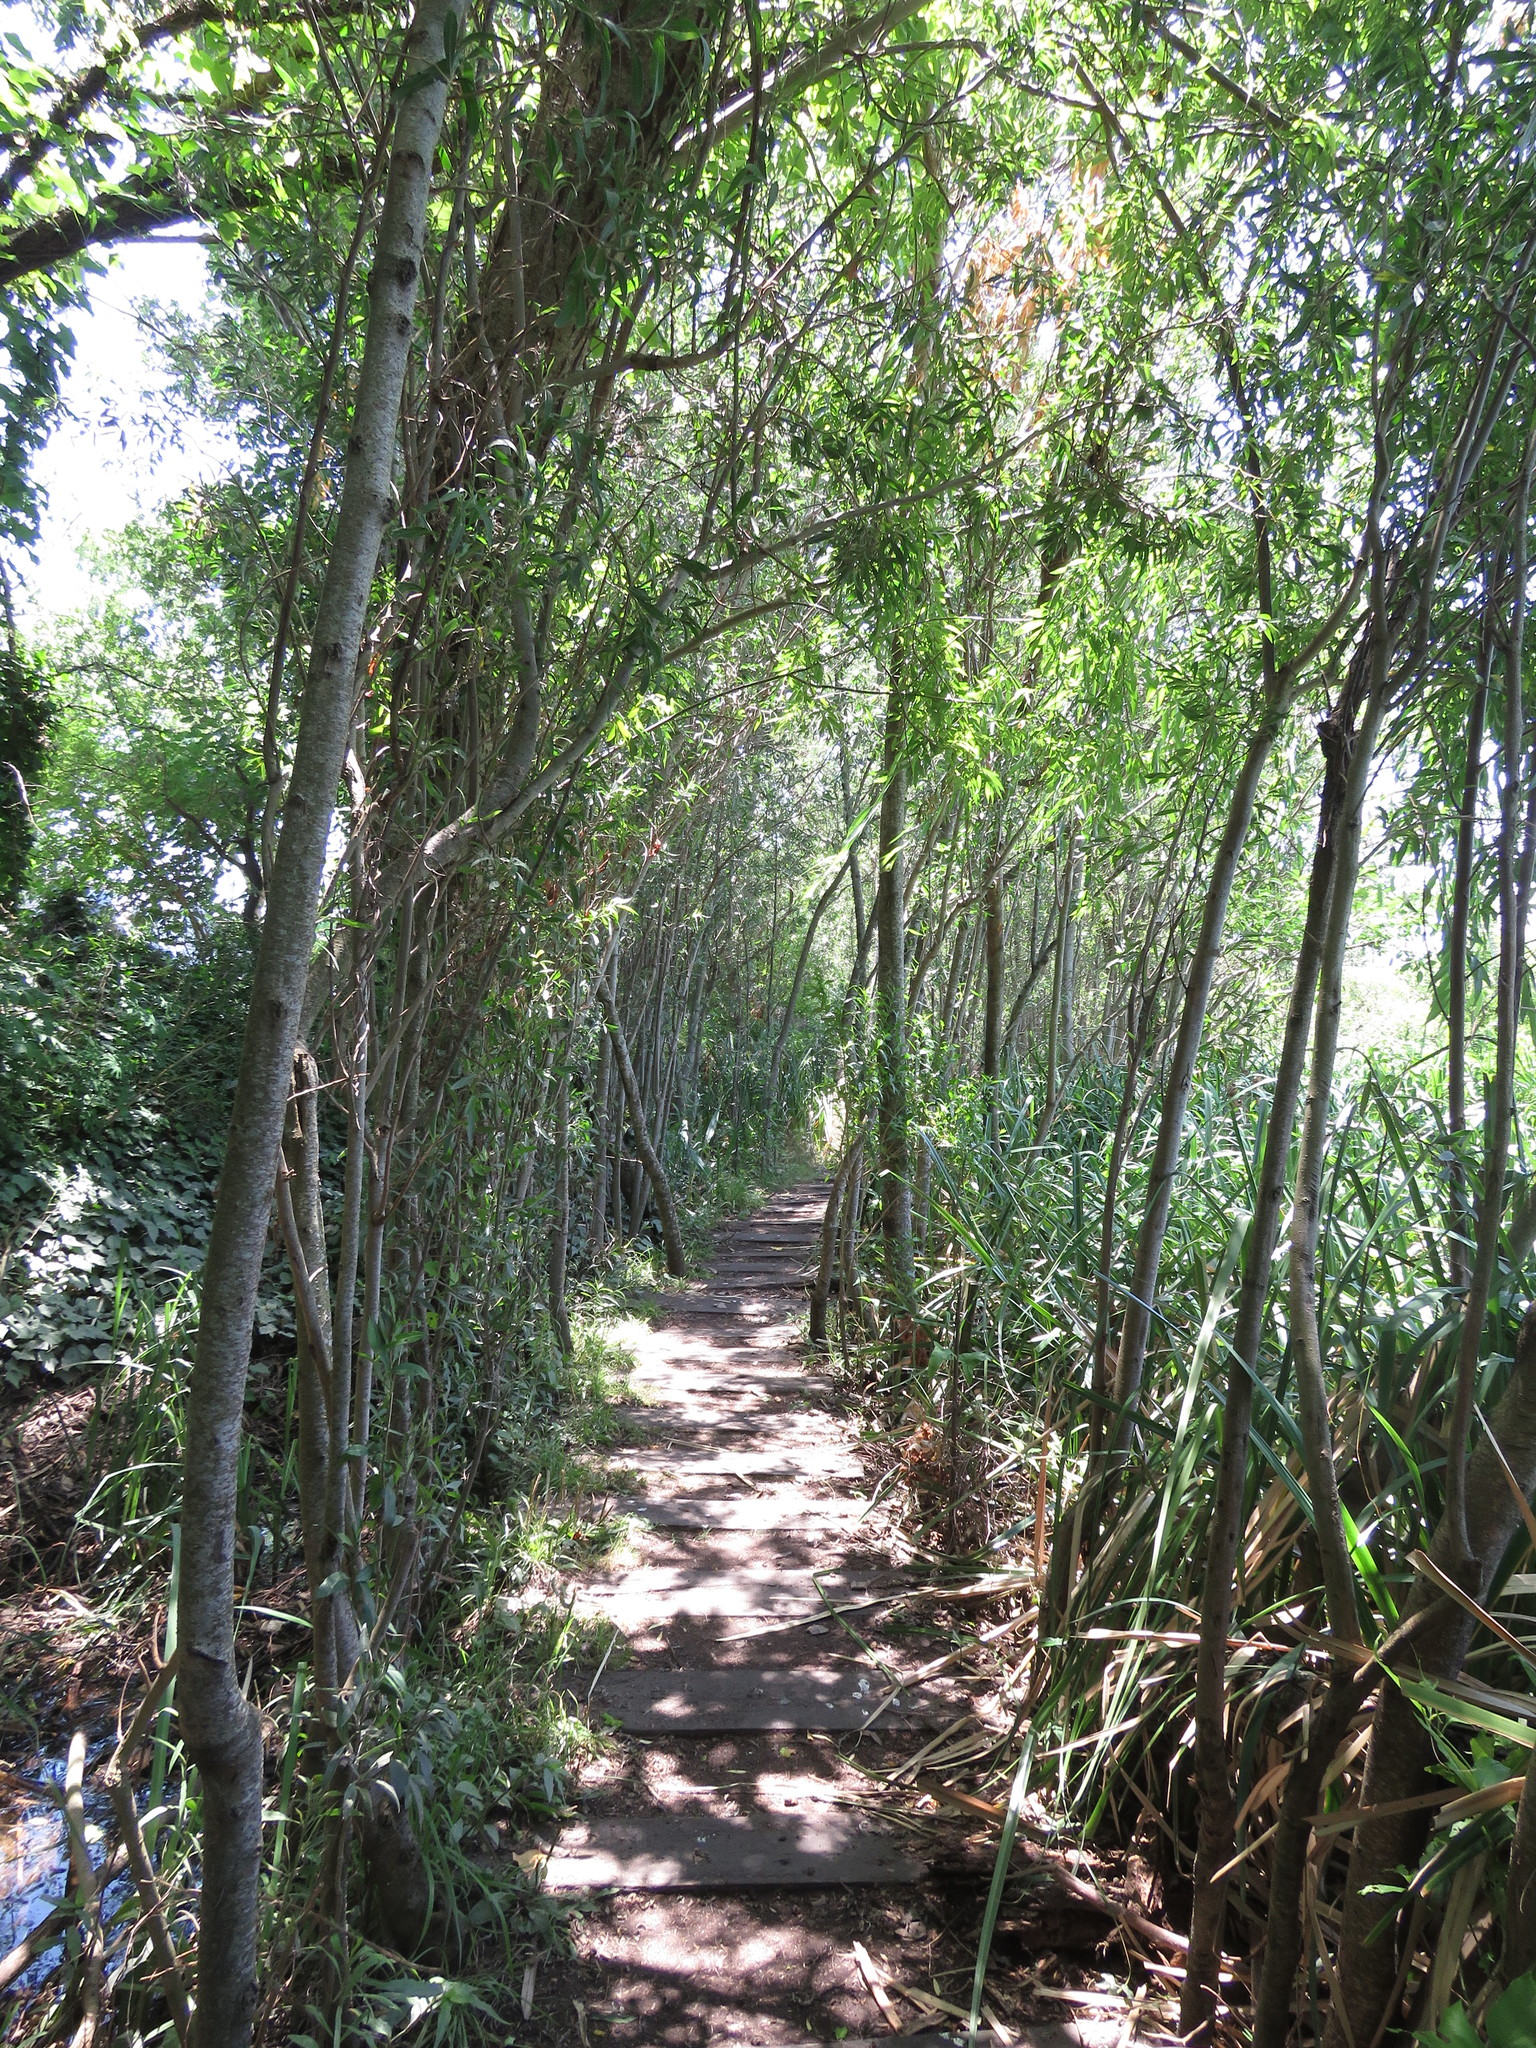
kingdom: Plantae
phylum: Tracheophyta
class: Magnoliopsida
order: Asterales
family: Asteraceae
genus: Tessaria
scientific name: Tessaria integrifolia
